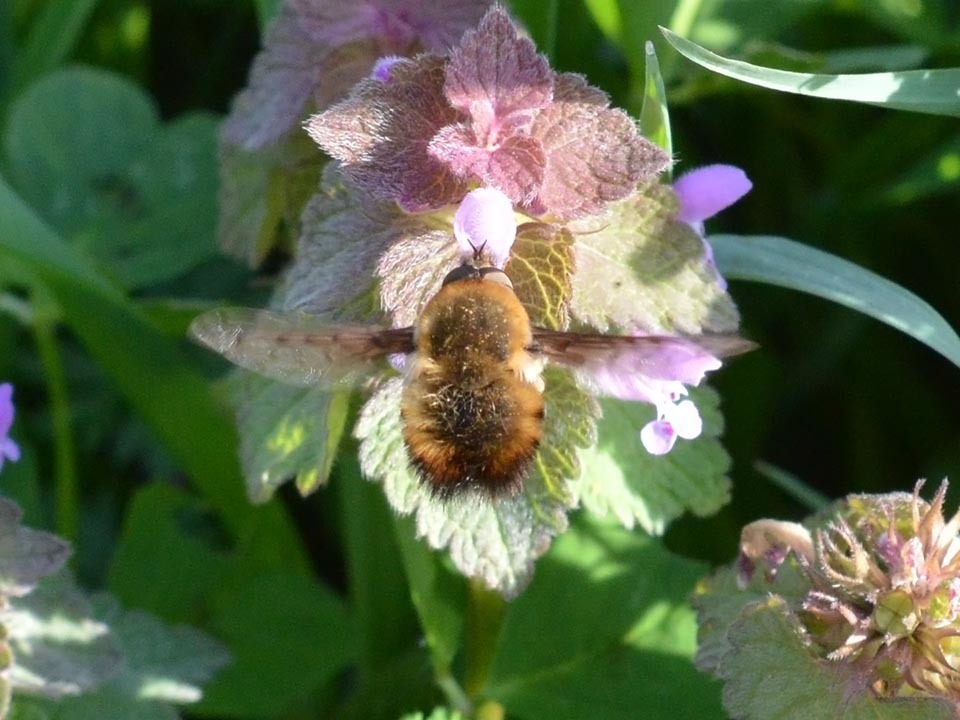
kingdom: Animalia
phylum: Arthropoda
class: Insecta
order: Diptera
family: Bombyliidae
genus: Bombylius
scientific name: Bombylius discolor
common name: Dotted bee-fly
